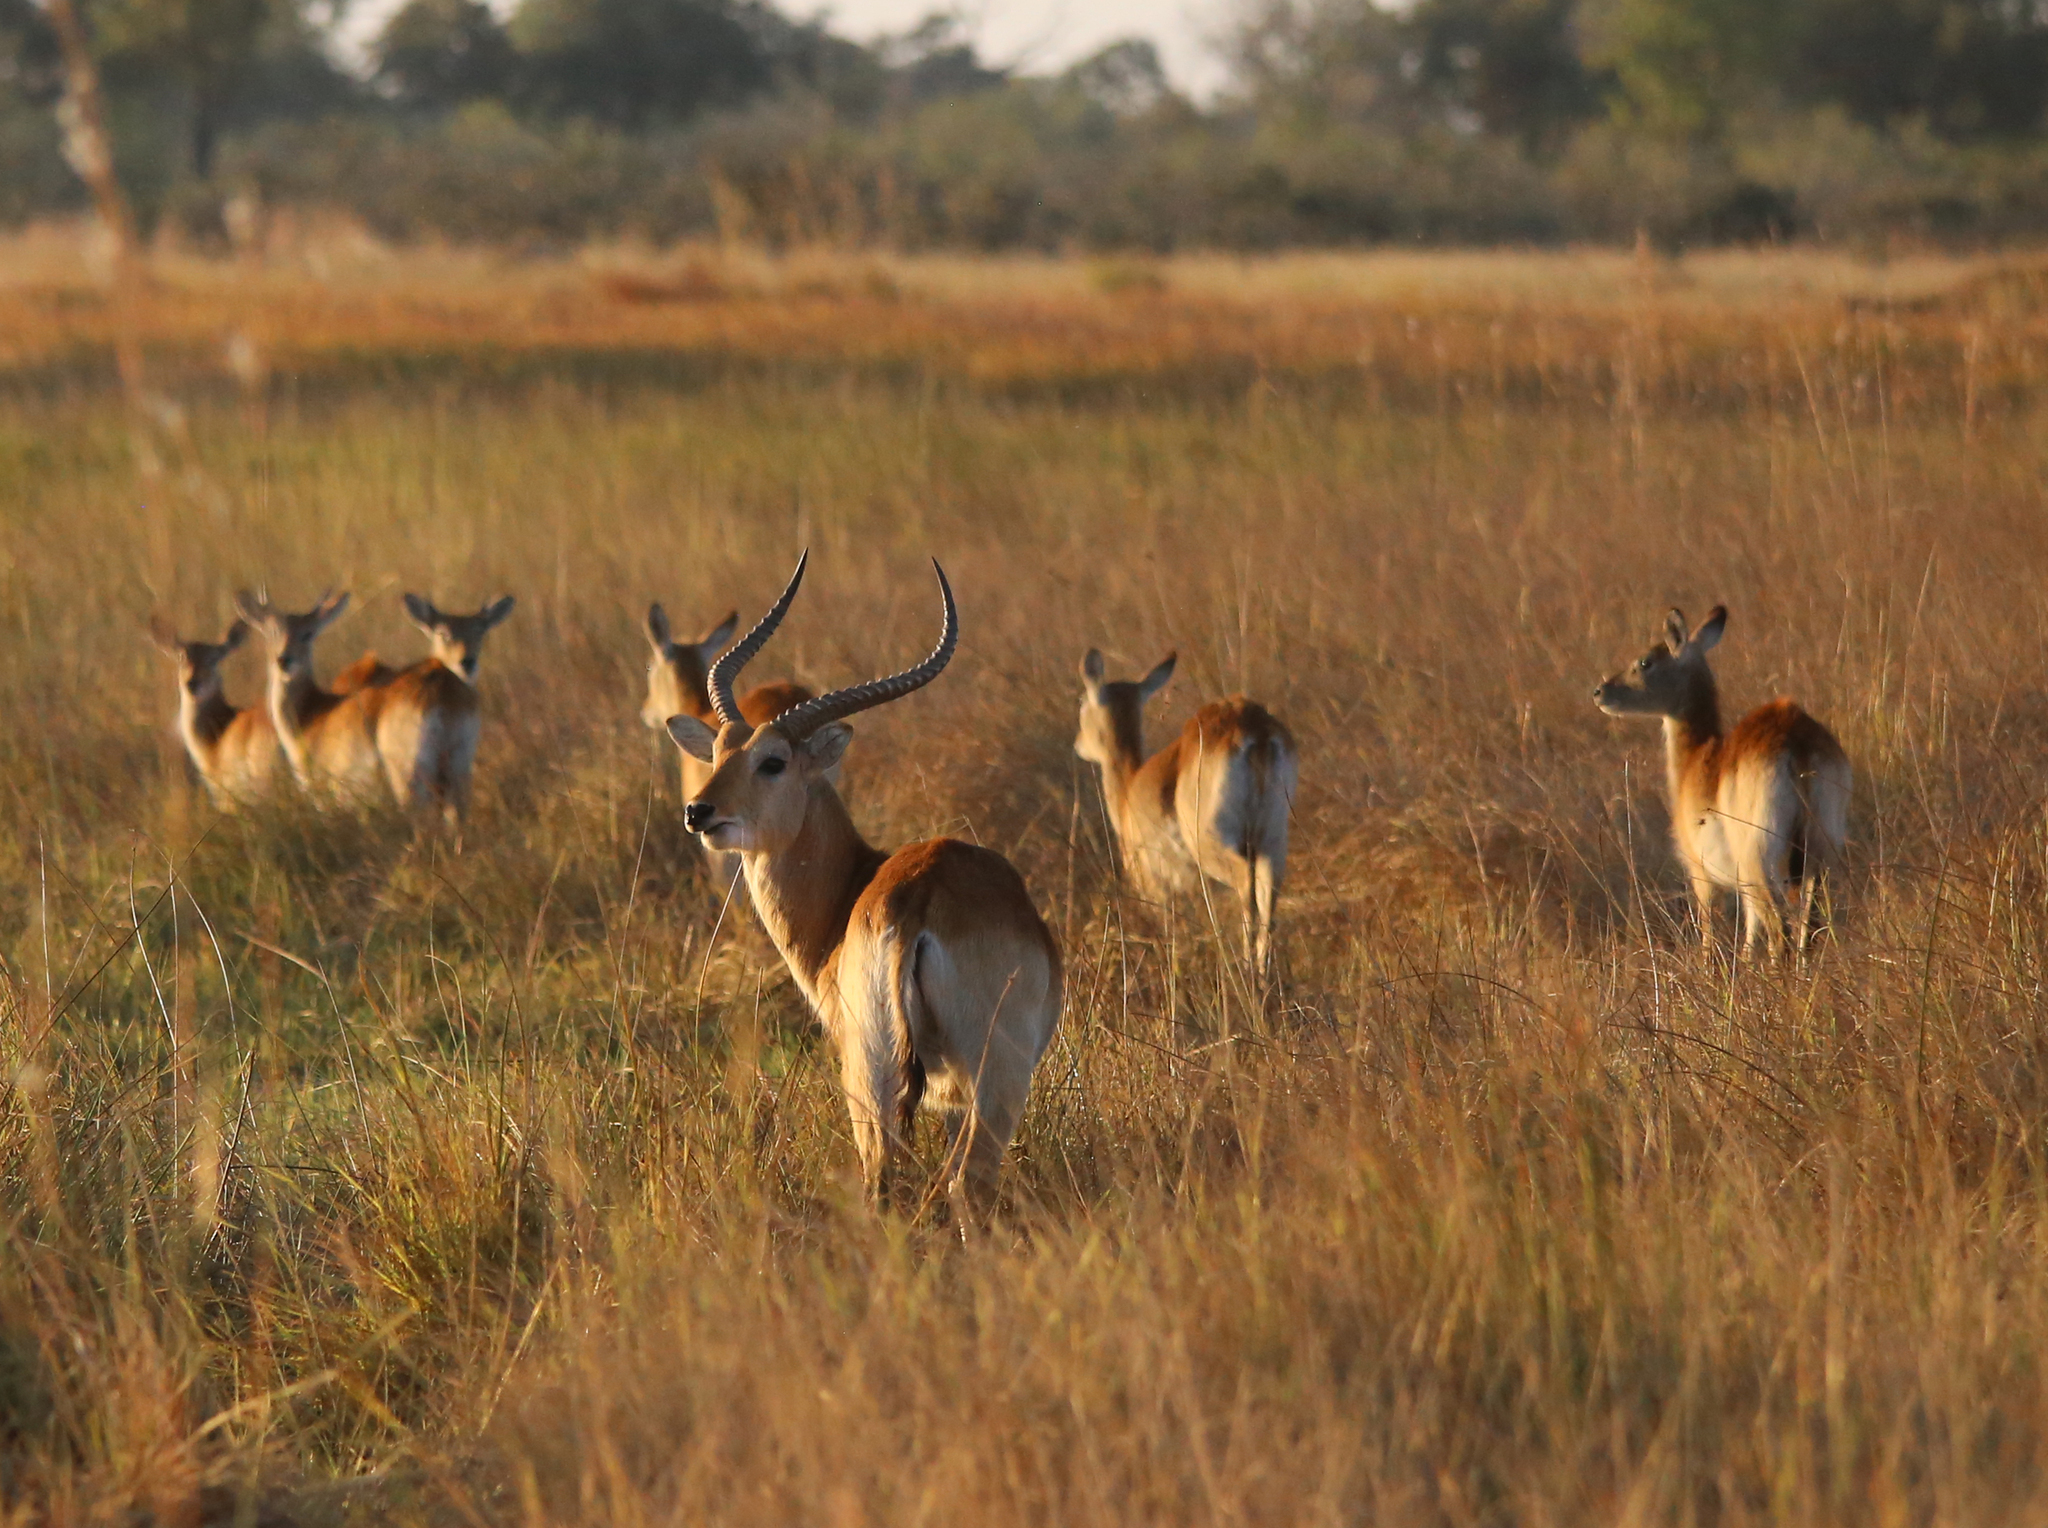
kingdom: Animalia
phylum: Chordata
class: Mammalia
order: Artiodactyla
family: Bovidae
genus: Kobus
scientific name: Kobus leche
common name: Lechwe
